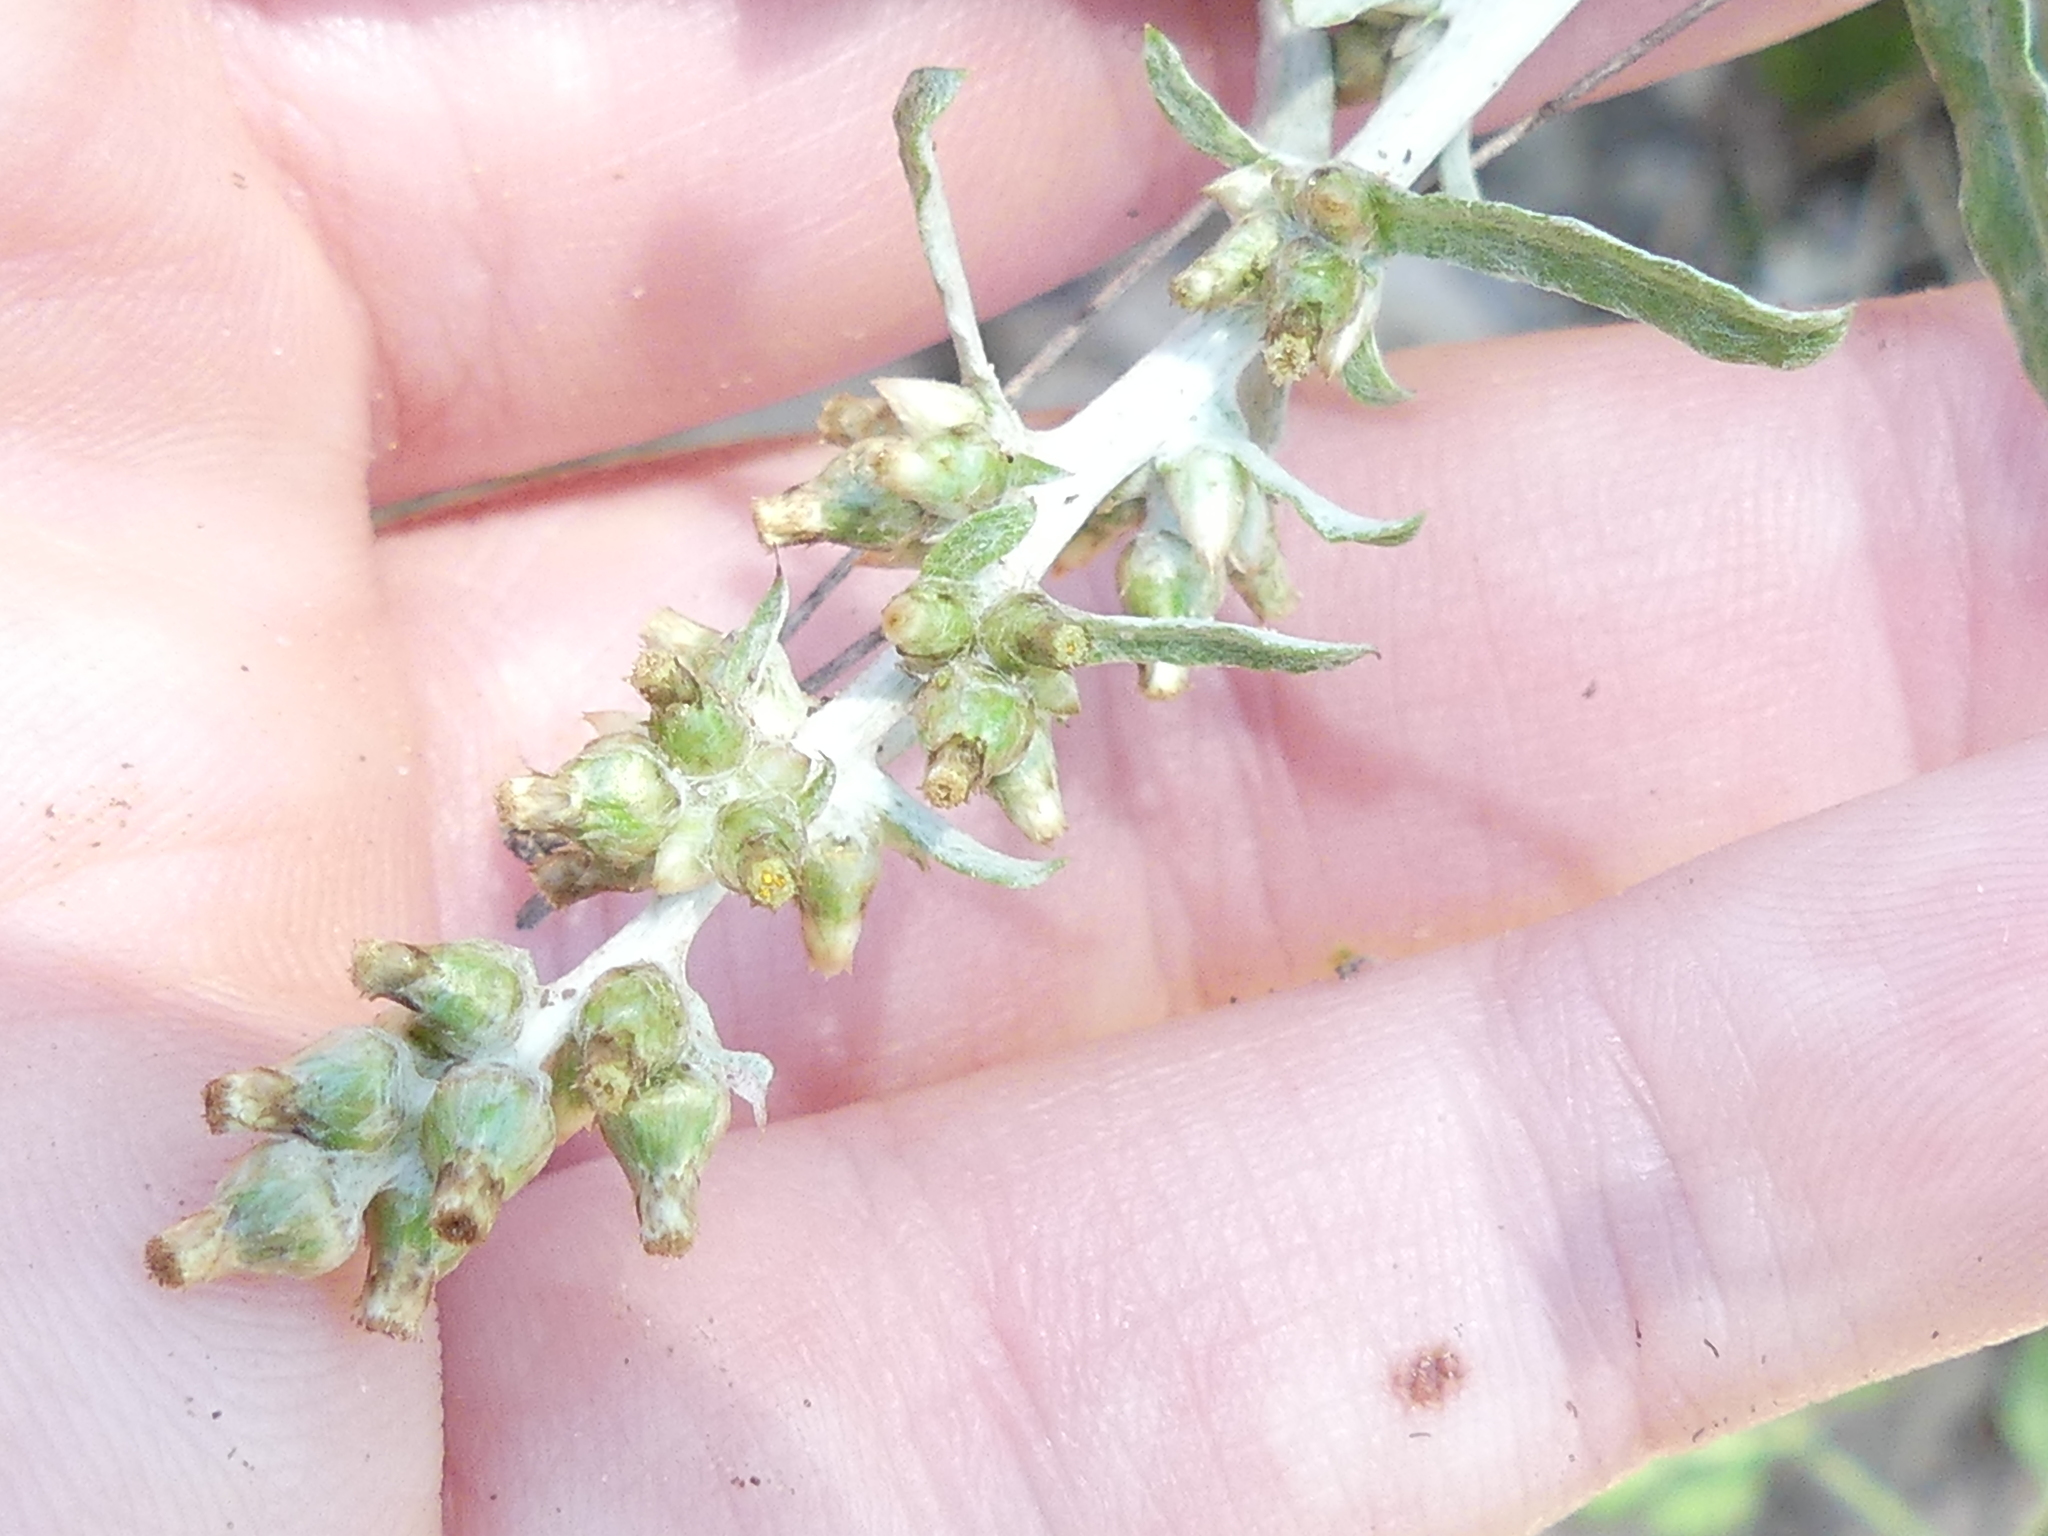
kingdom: Plantae
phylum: Tracheophyta
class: Magnoliopsida
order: Asterales
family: Asteraceae
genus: Gamochaeta
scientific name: Gamochaeta pensylvanica
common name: Pennsylvania everlasting
